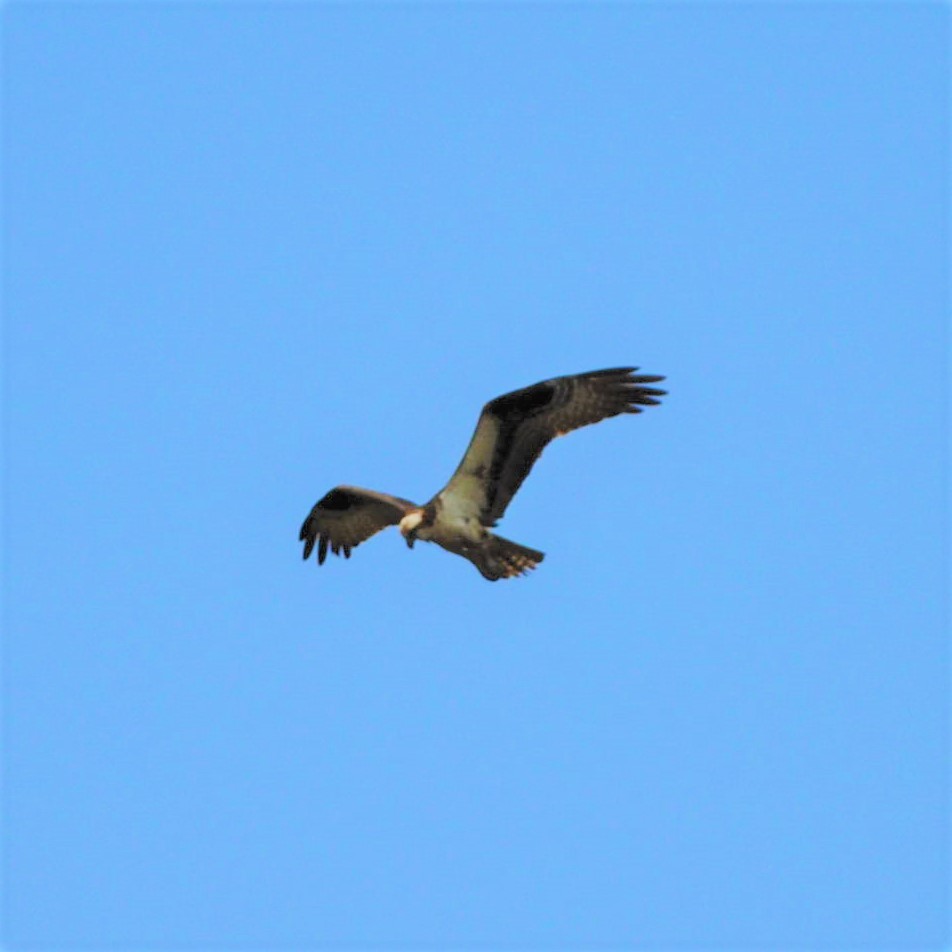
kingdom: Animalia
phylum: Chordata
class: Aves
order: Accipitriformes
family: Pandionidae
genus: Pandion
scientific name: Pandion haliaetus
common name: Osprey
